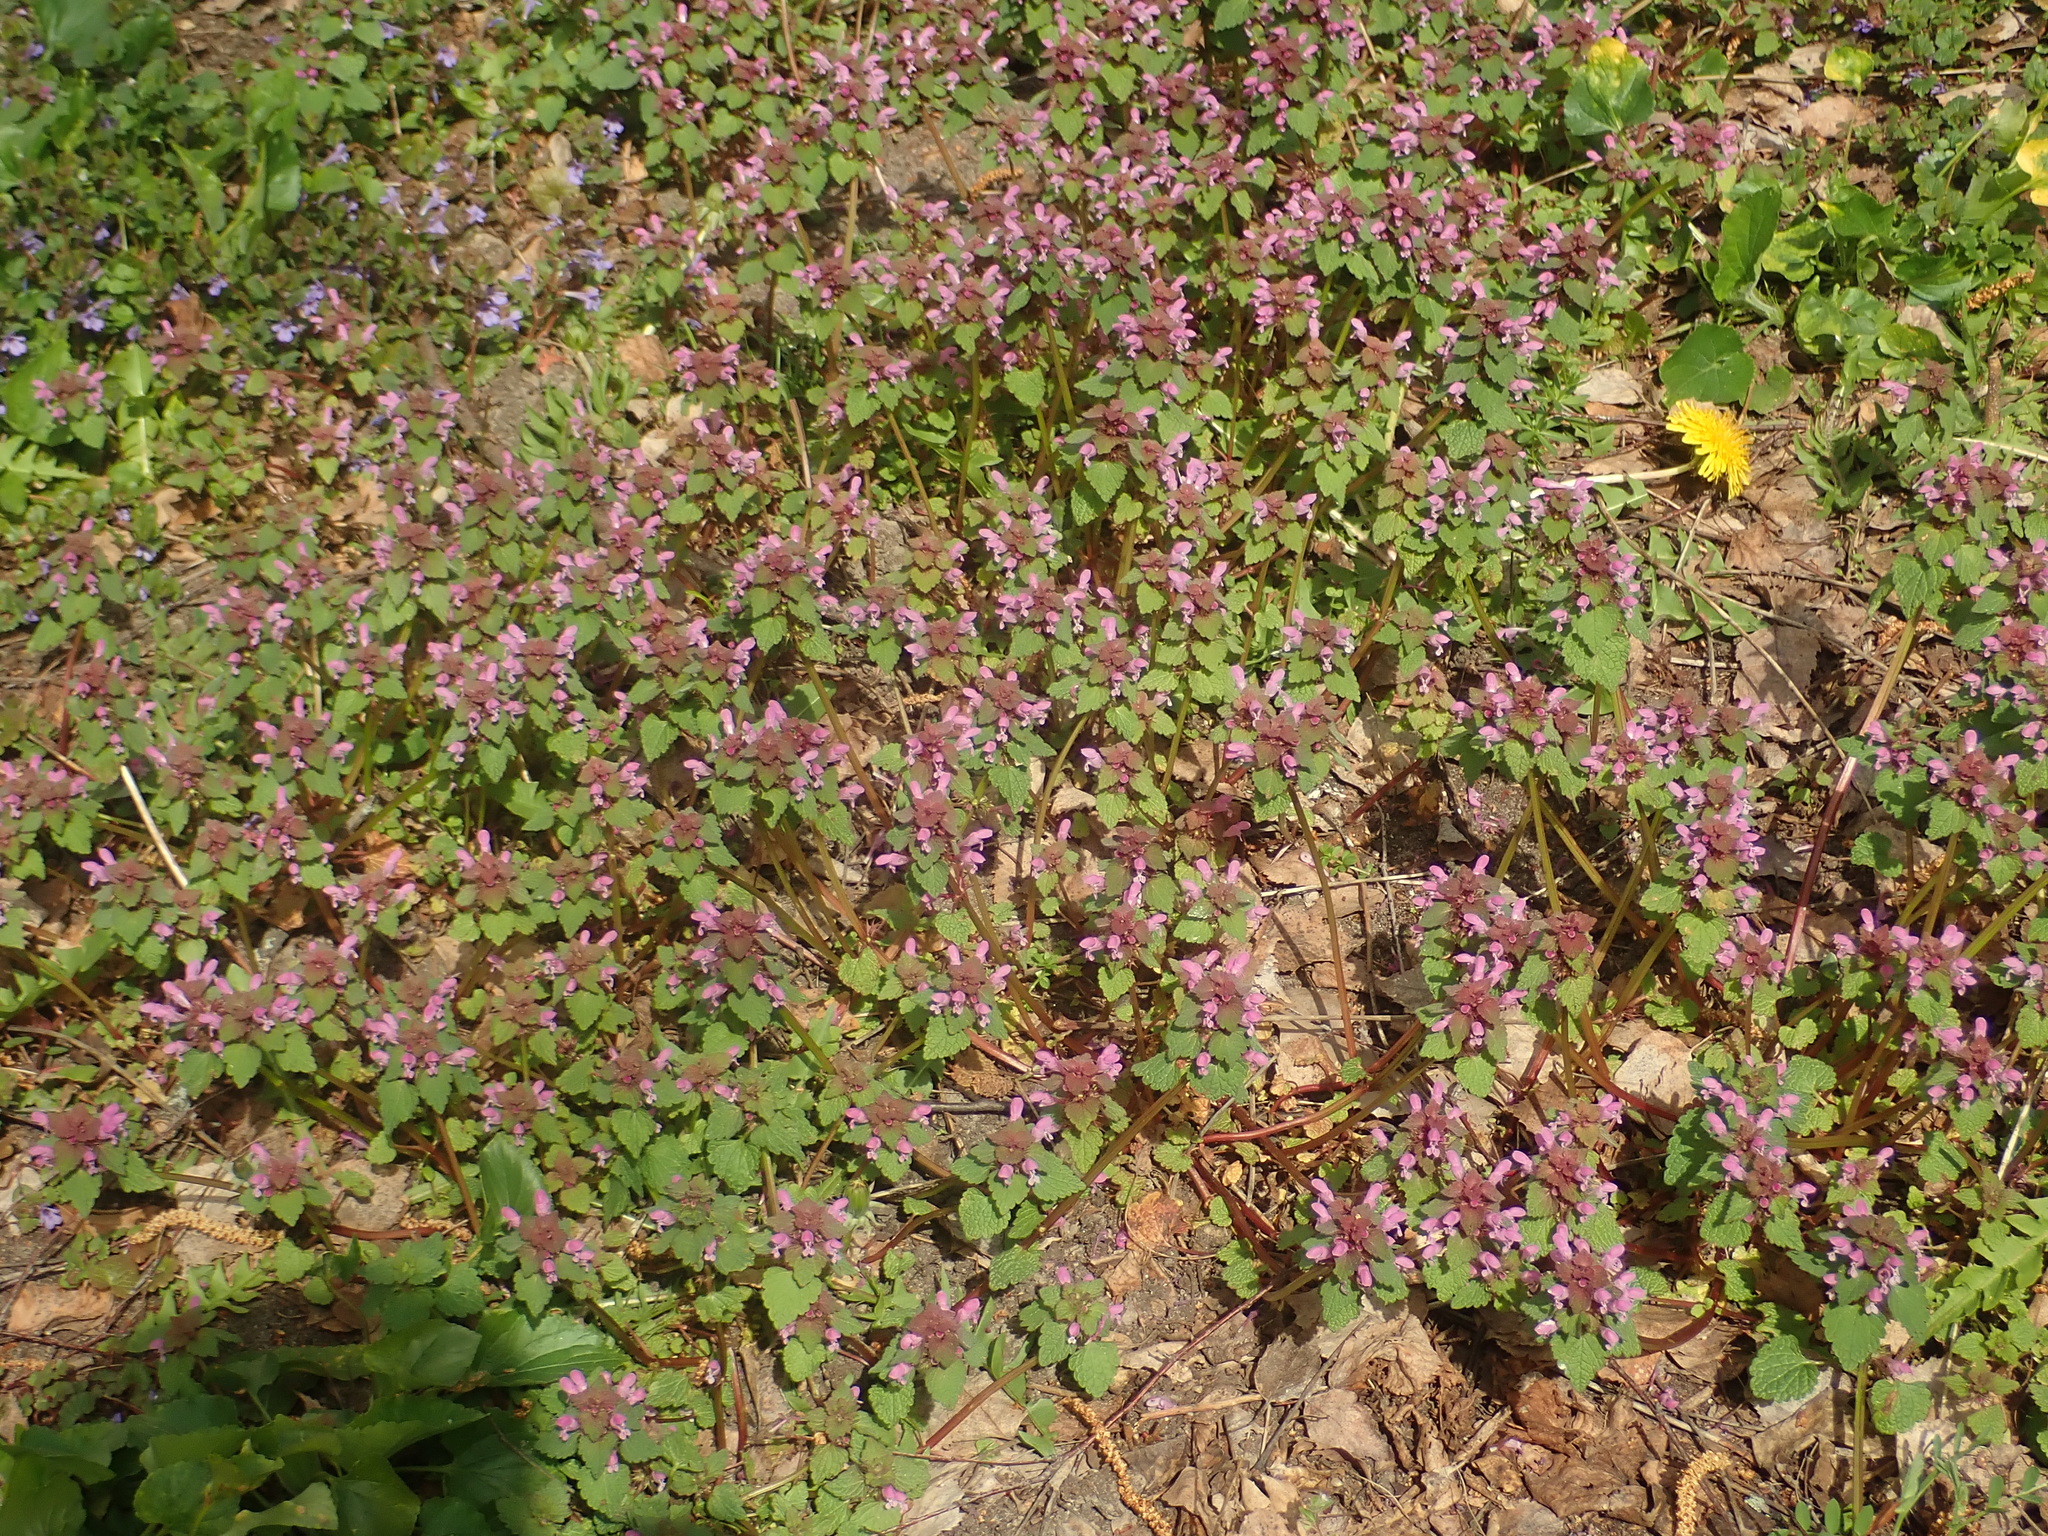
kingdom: Plantae
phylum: Tracheophyta
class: Magnoliopsida
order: Lamiales
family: Lamiaceae
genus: Lamium
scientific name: Lamium purpureum
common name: Red dead-nettle
